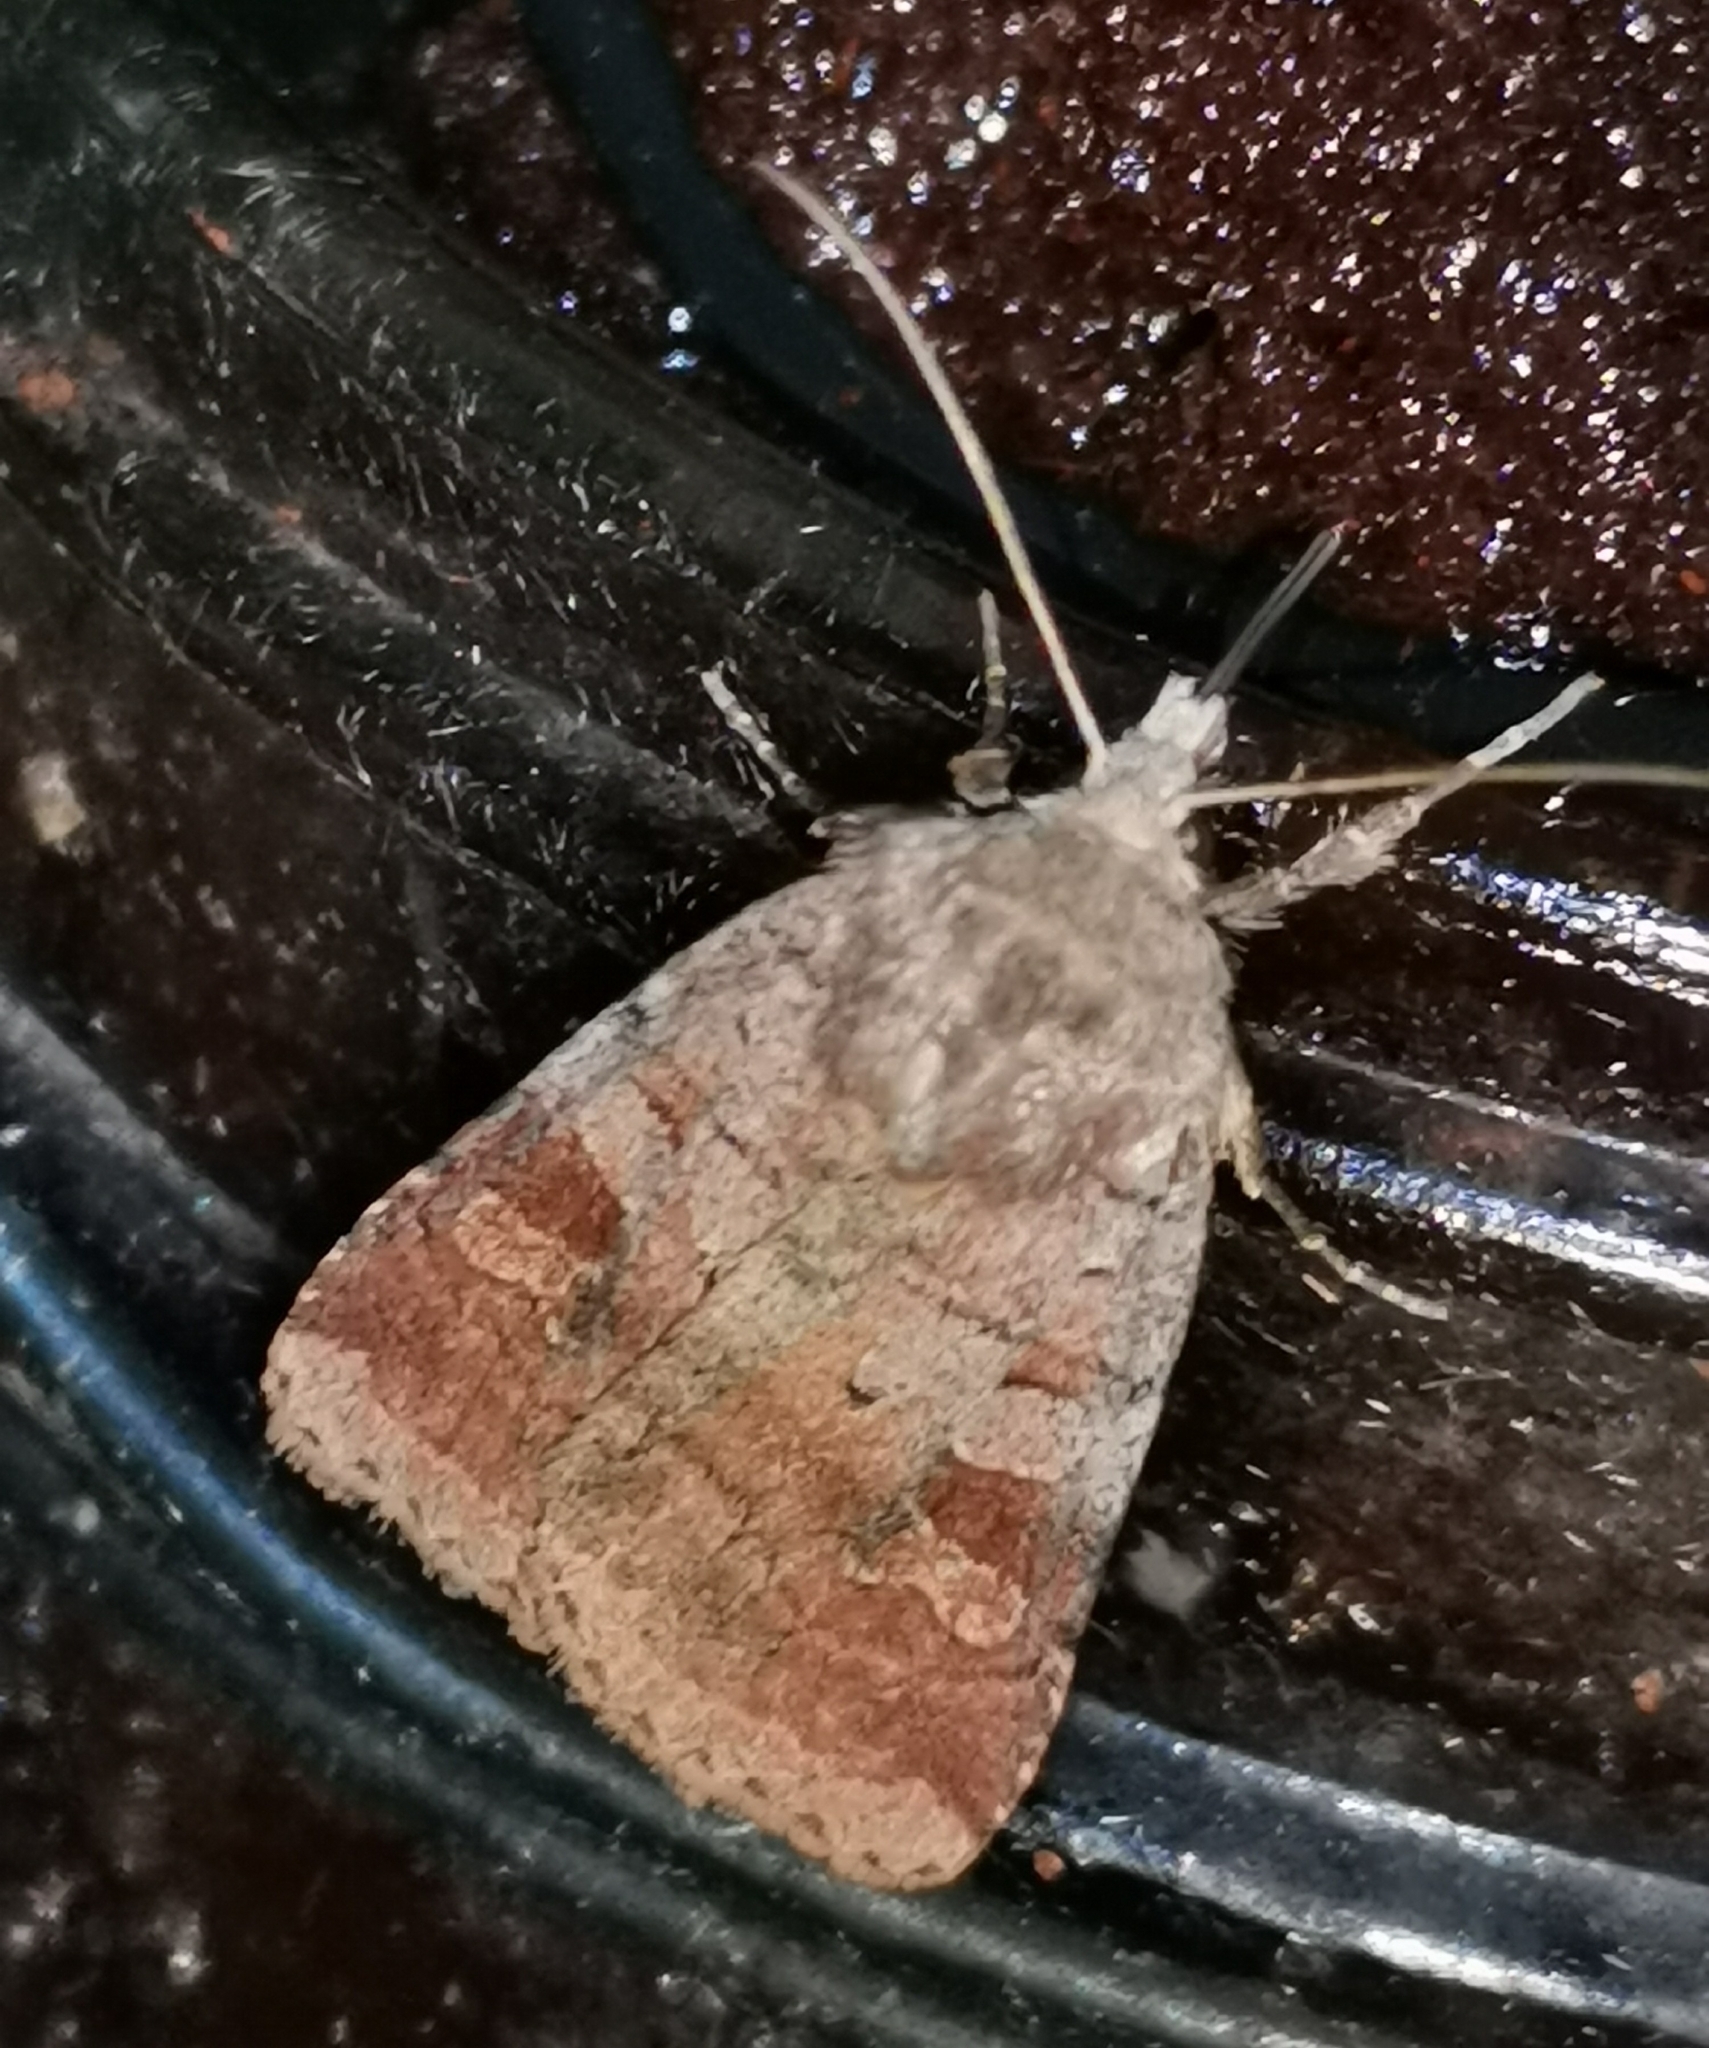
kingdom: Animalia
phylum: Arthropoda
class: Insecta
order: Lepidoptera
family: Noctuidae
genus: Diarsia
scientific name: Diarsia mendica
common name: Ingrailed clay
